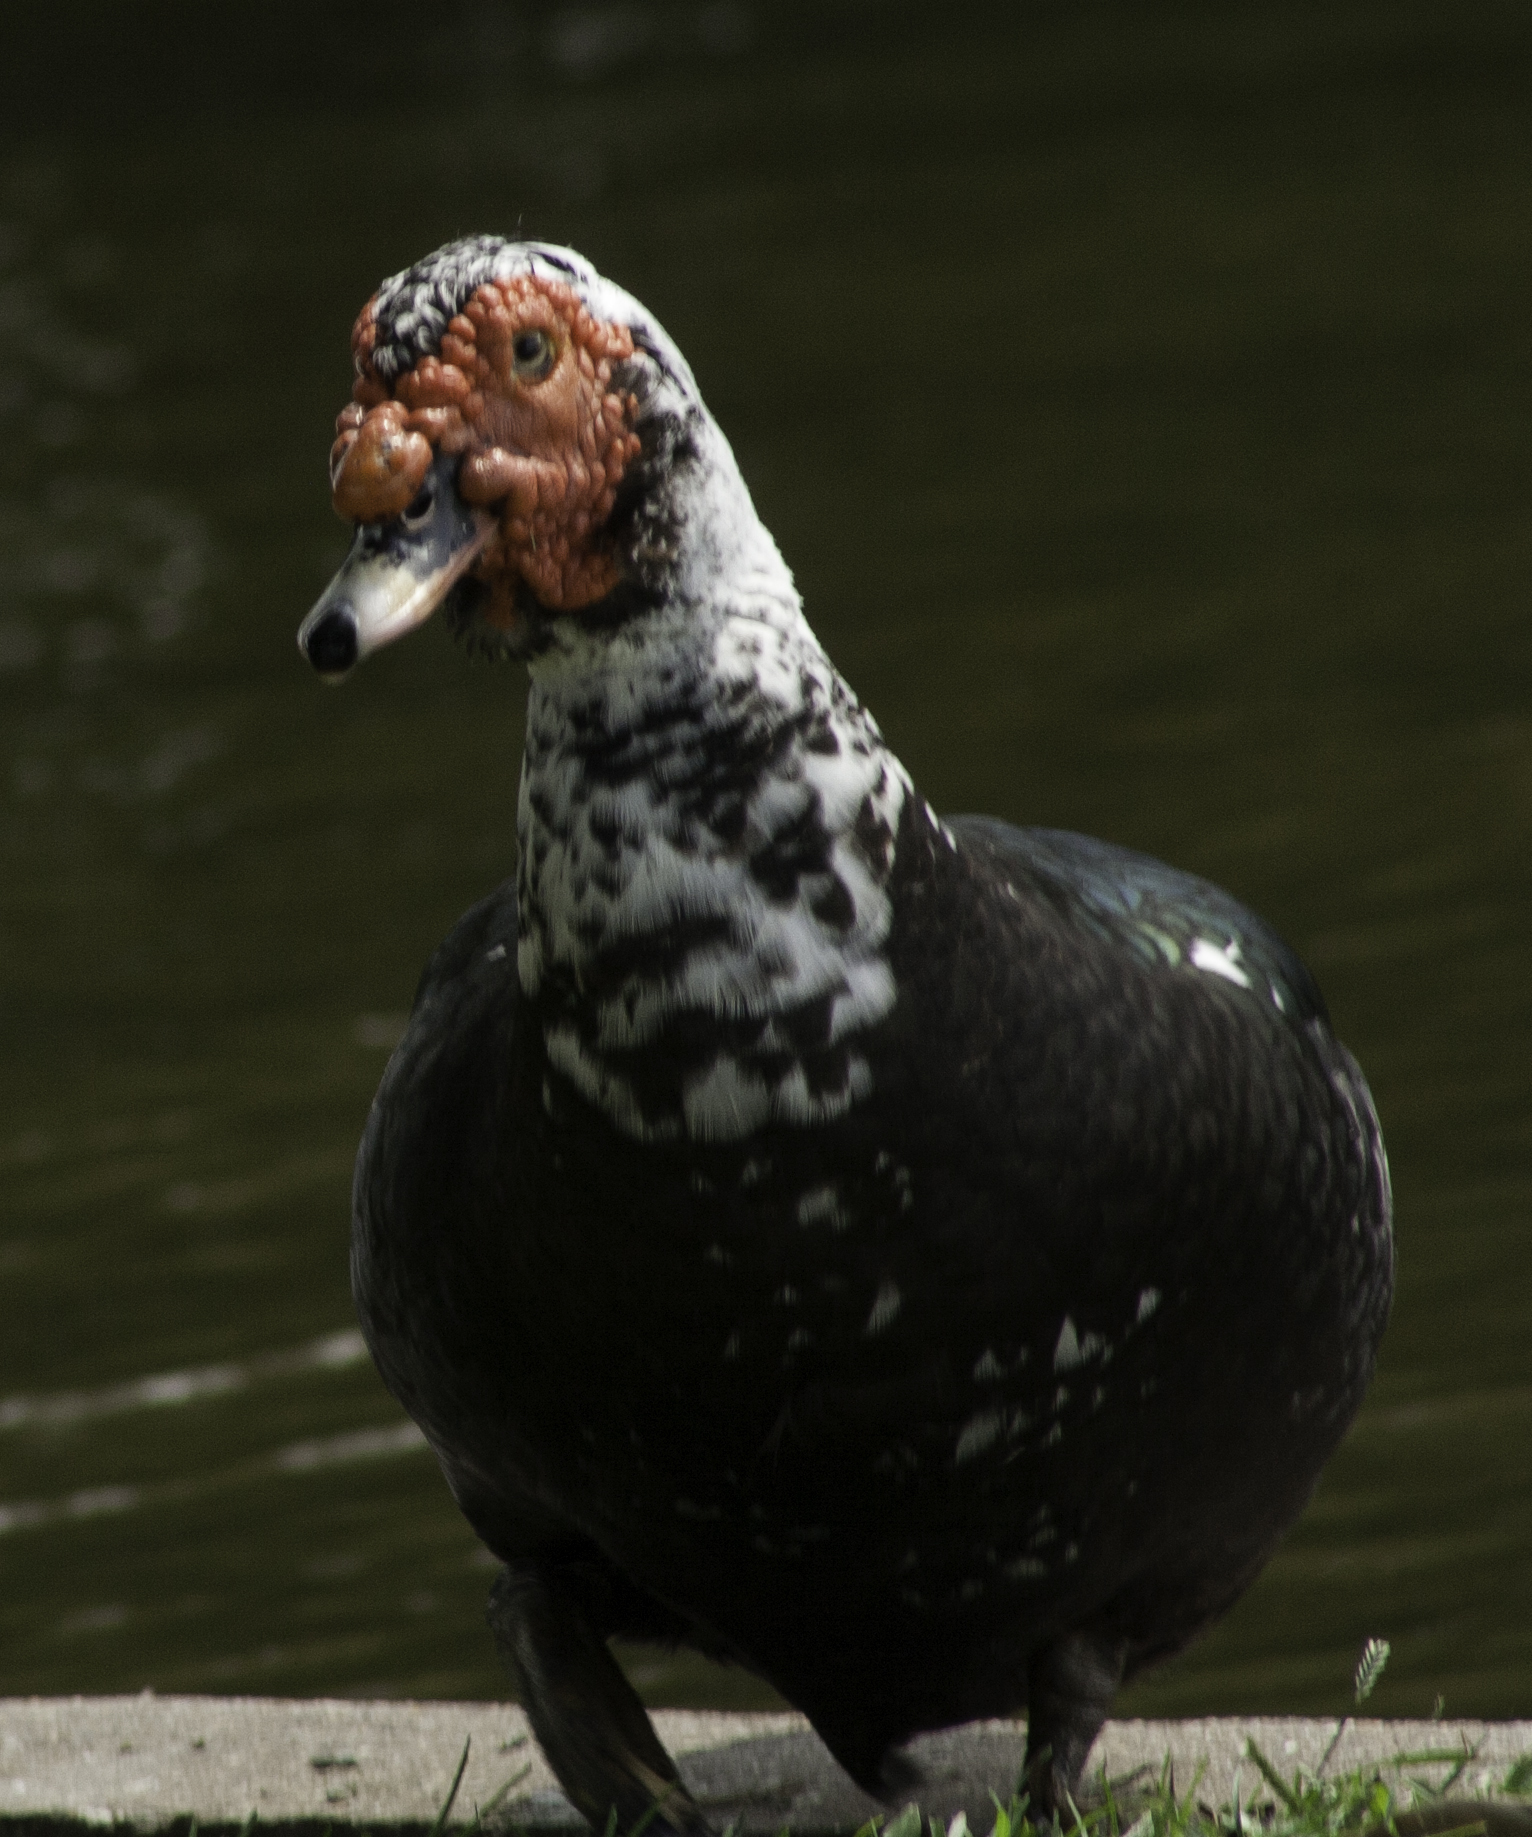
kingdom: Animalia
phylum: Chordata
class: Aves
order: Anseriformes
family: Anatidae
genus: Cairina
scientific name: Cairina moschata
